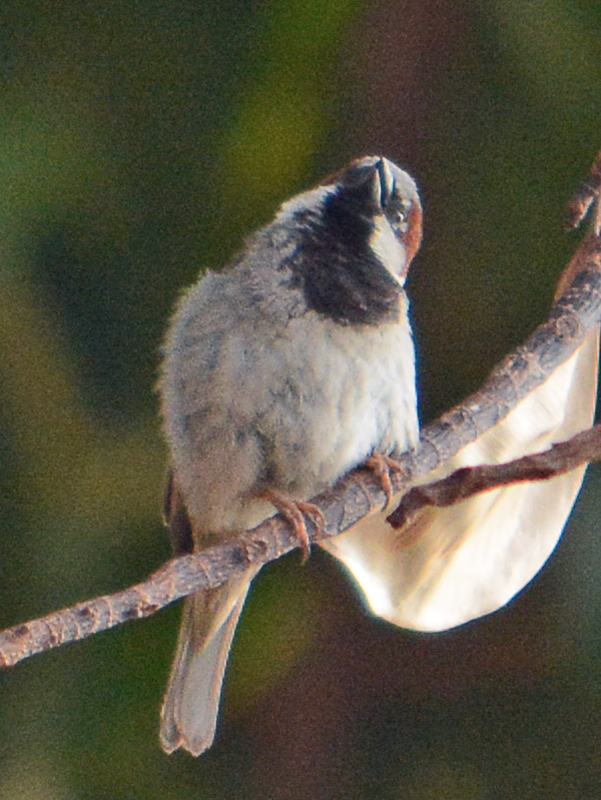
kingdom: Animalia
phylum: Chordata
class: Aves
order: Passeriformes
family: Passeridae
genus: Passer
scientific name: Passer domesticus
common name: House sparrow
